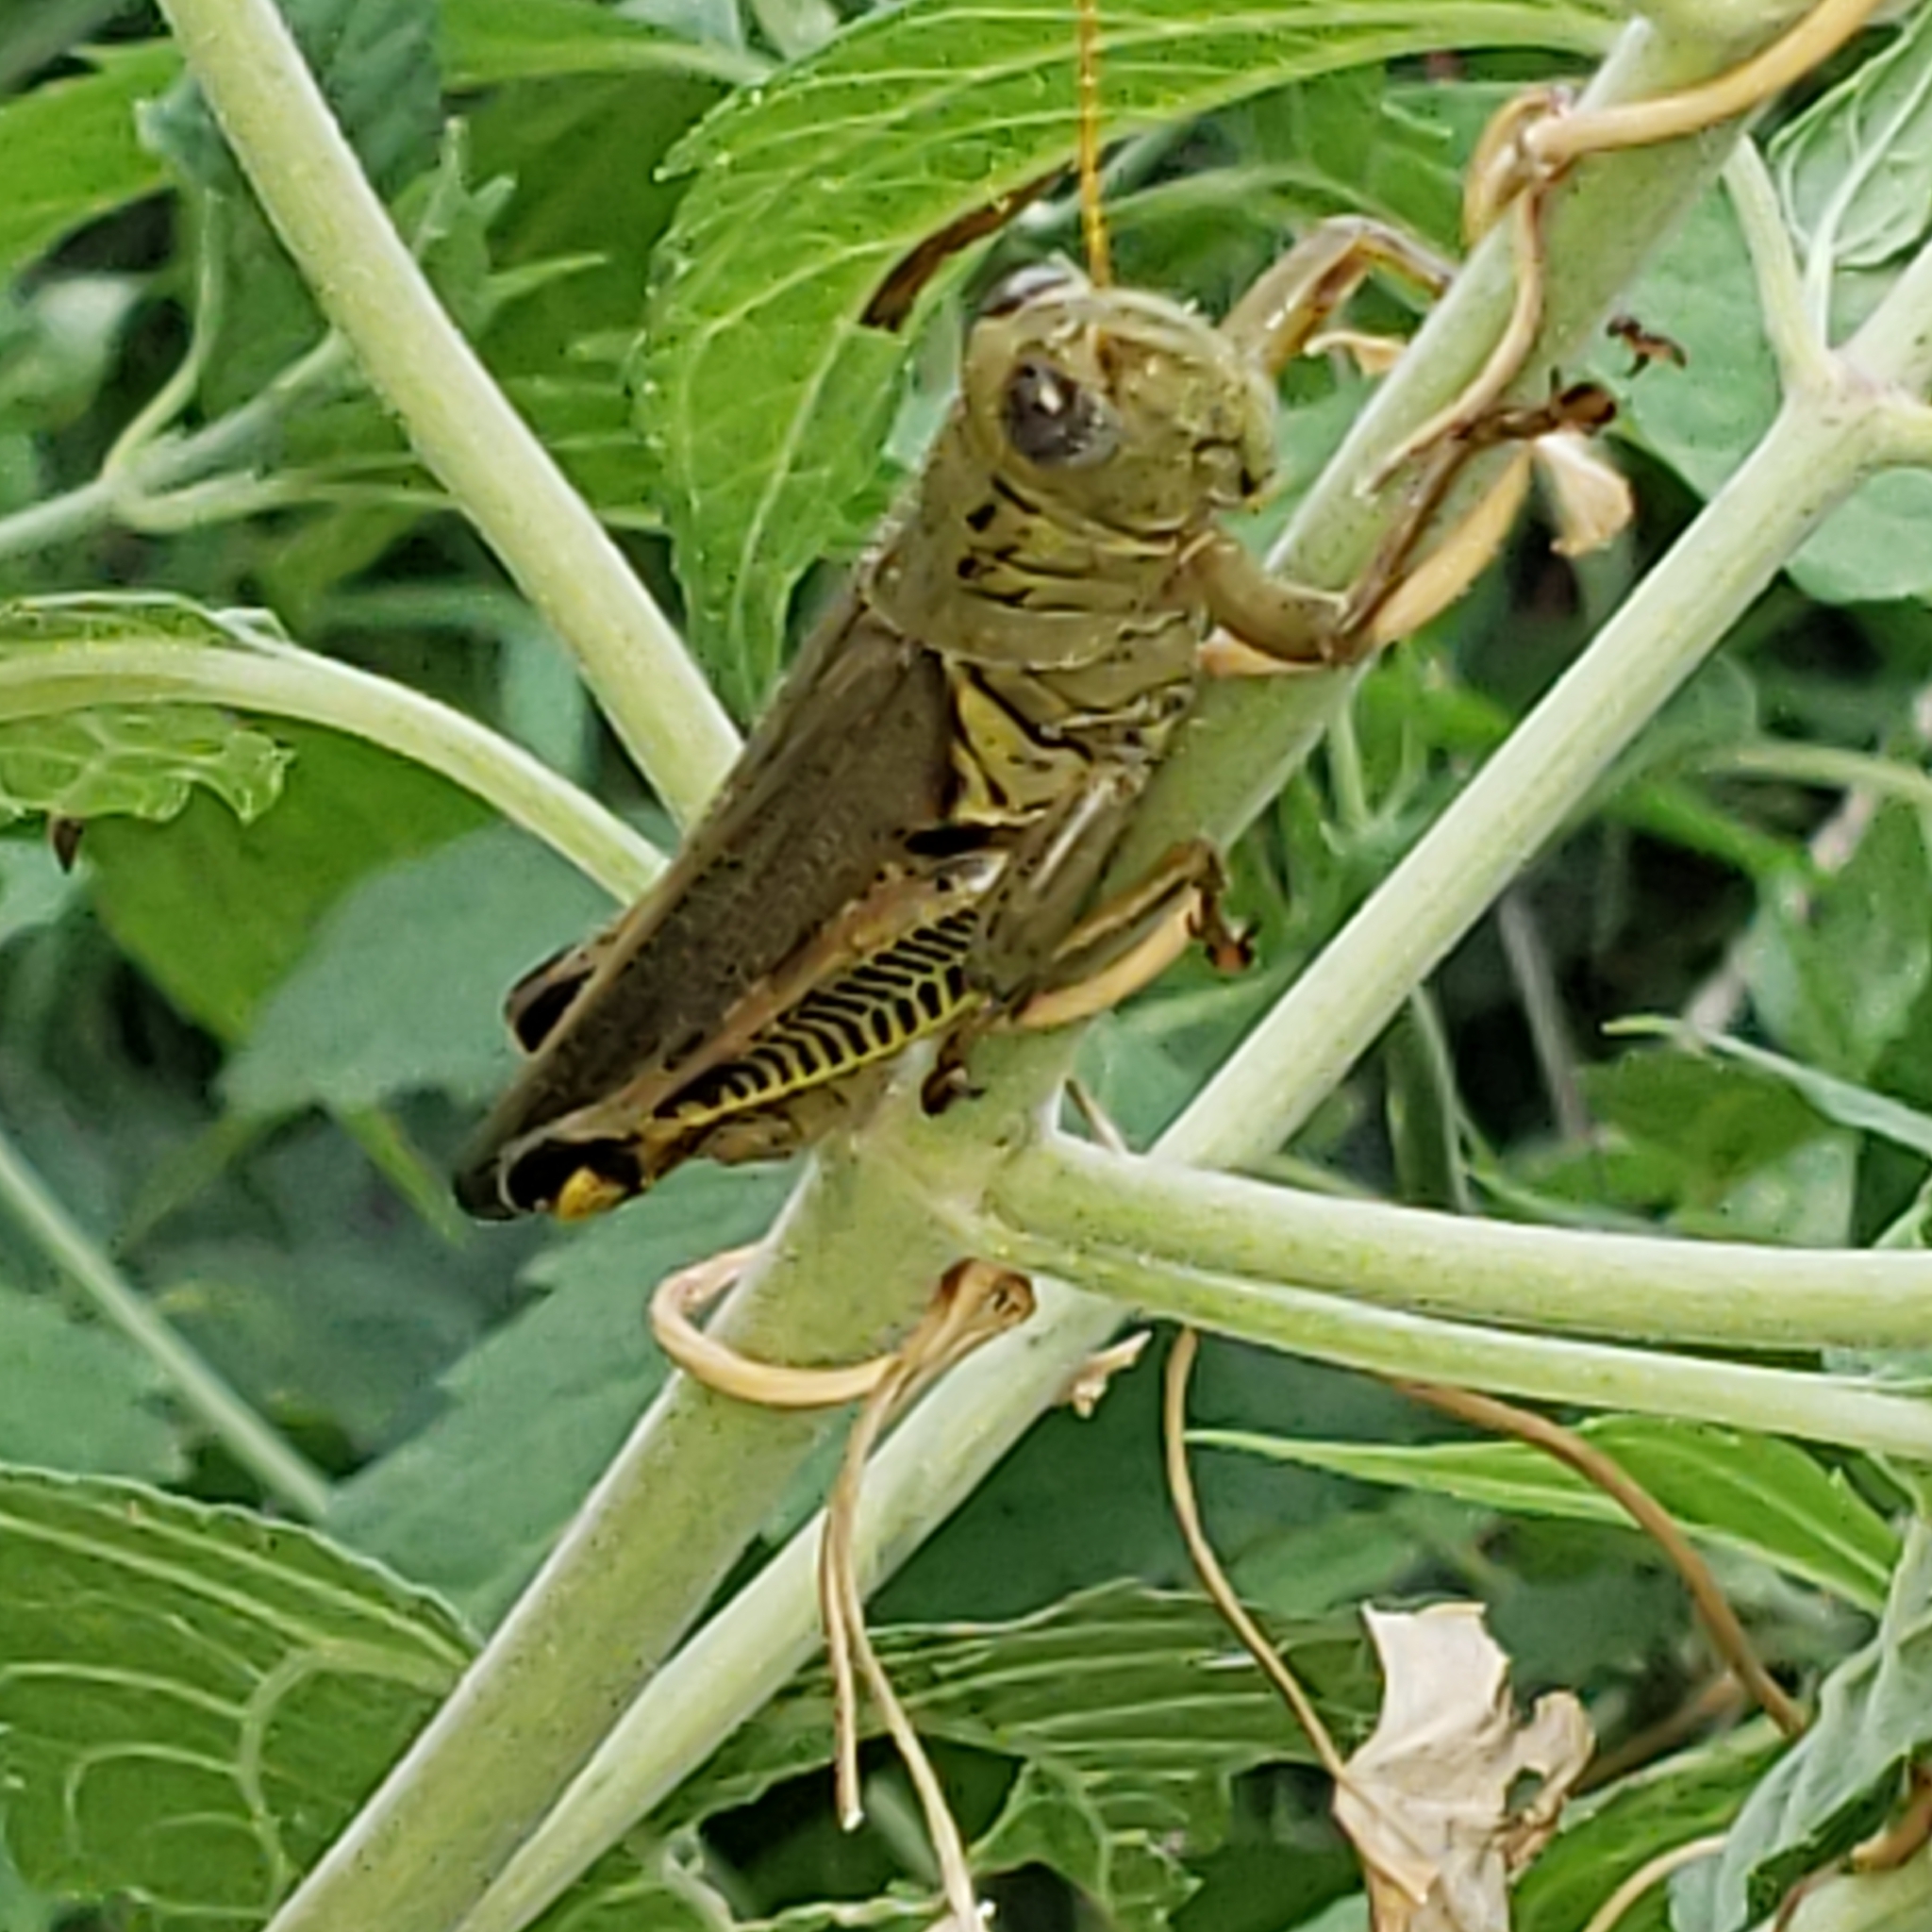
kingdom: Animalia
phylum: Arthropoda
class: Insecta
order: Orthoptera
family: Acrididae
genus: Melanoplus
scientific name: Melanoplus differentialis
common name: Differential grasshopper
